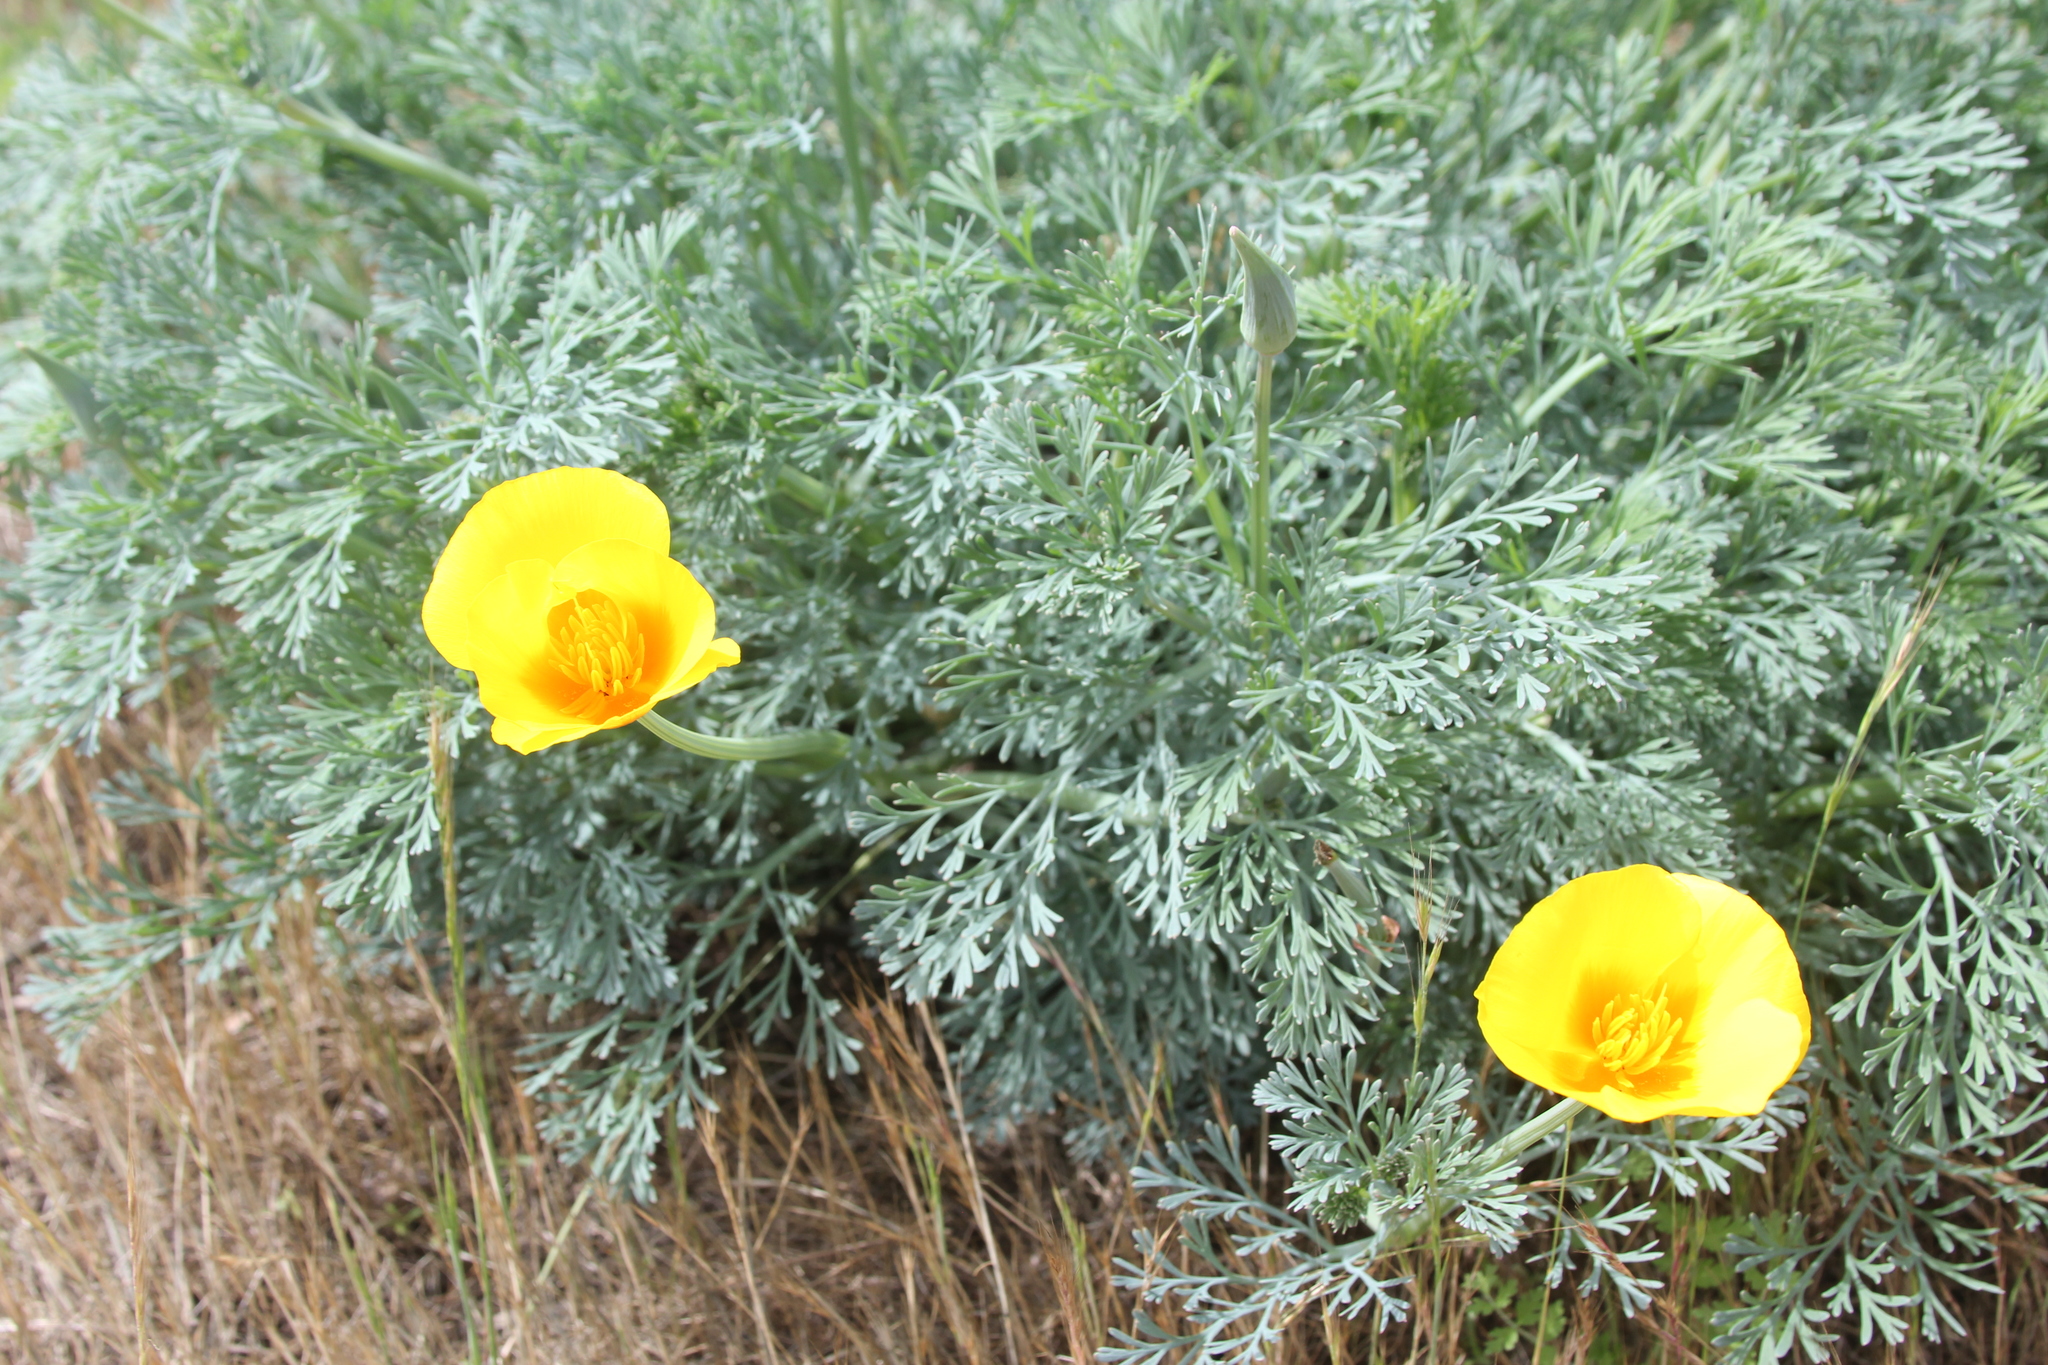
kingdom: Plantae
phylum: Tracheophyta
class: Magnoliopsida
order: Ranunculales
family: Papaveraceae
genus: Eschscholzia
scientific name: Eschscholzia californica
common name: California poppy
